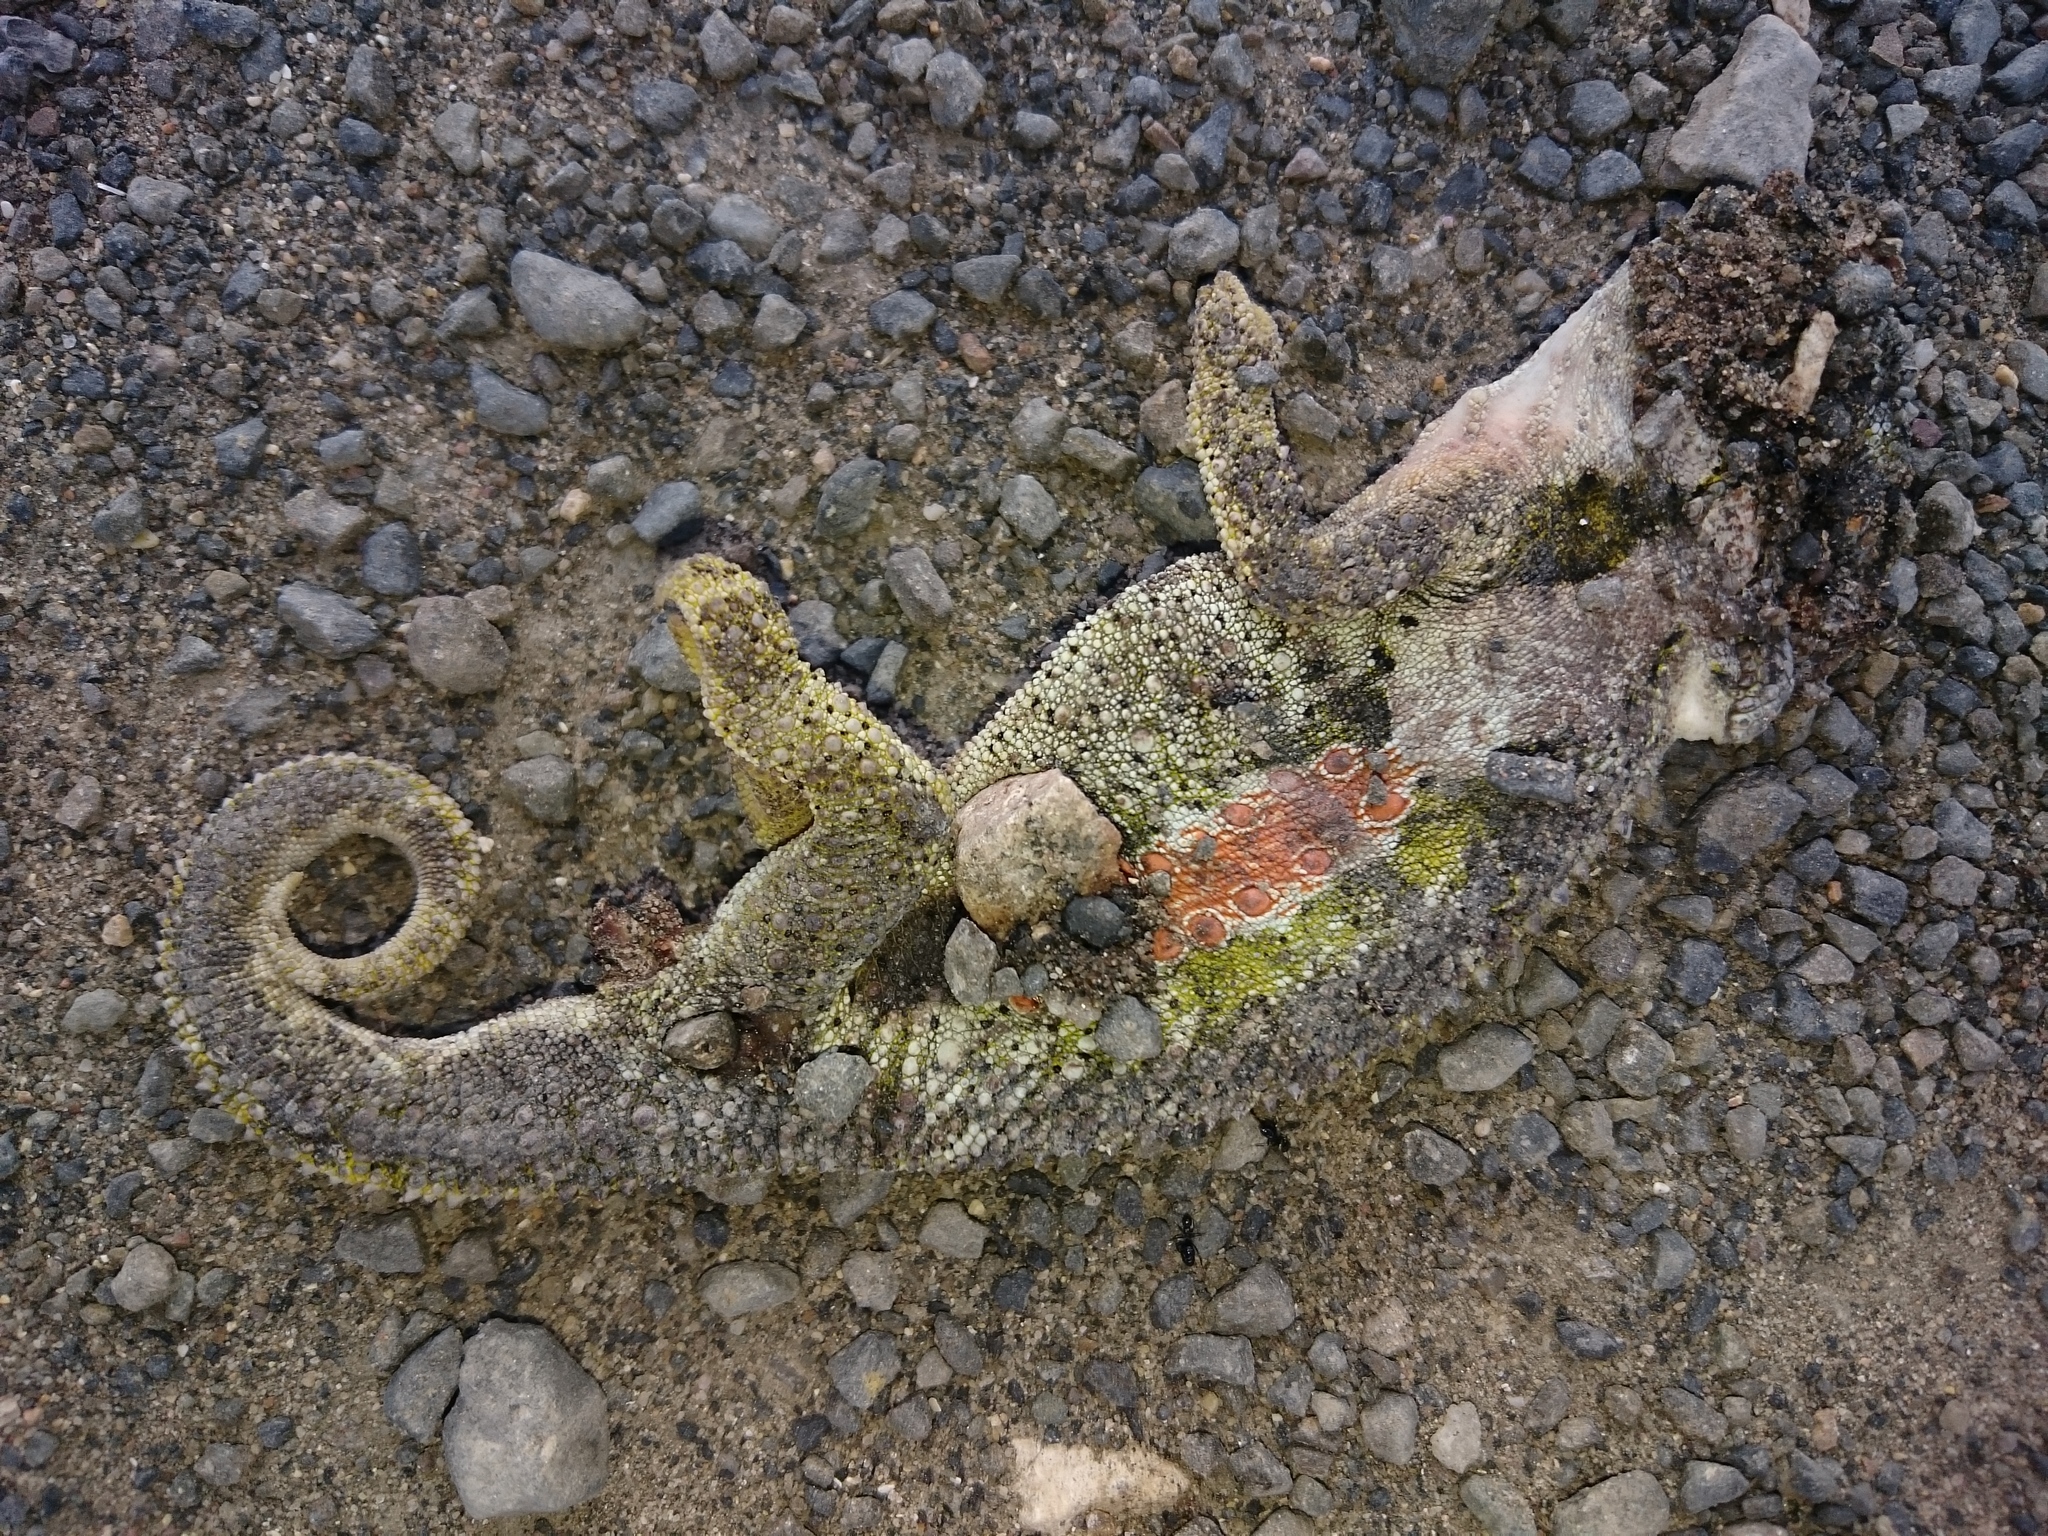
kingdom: Animalia
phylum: Chordata
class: Squamata
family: Chamaeleonidae
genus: Bradypodion
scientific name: Bradypodion ventrale
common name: Eastern cape dwarf chameleon
